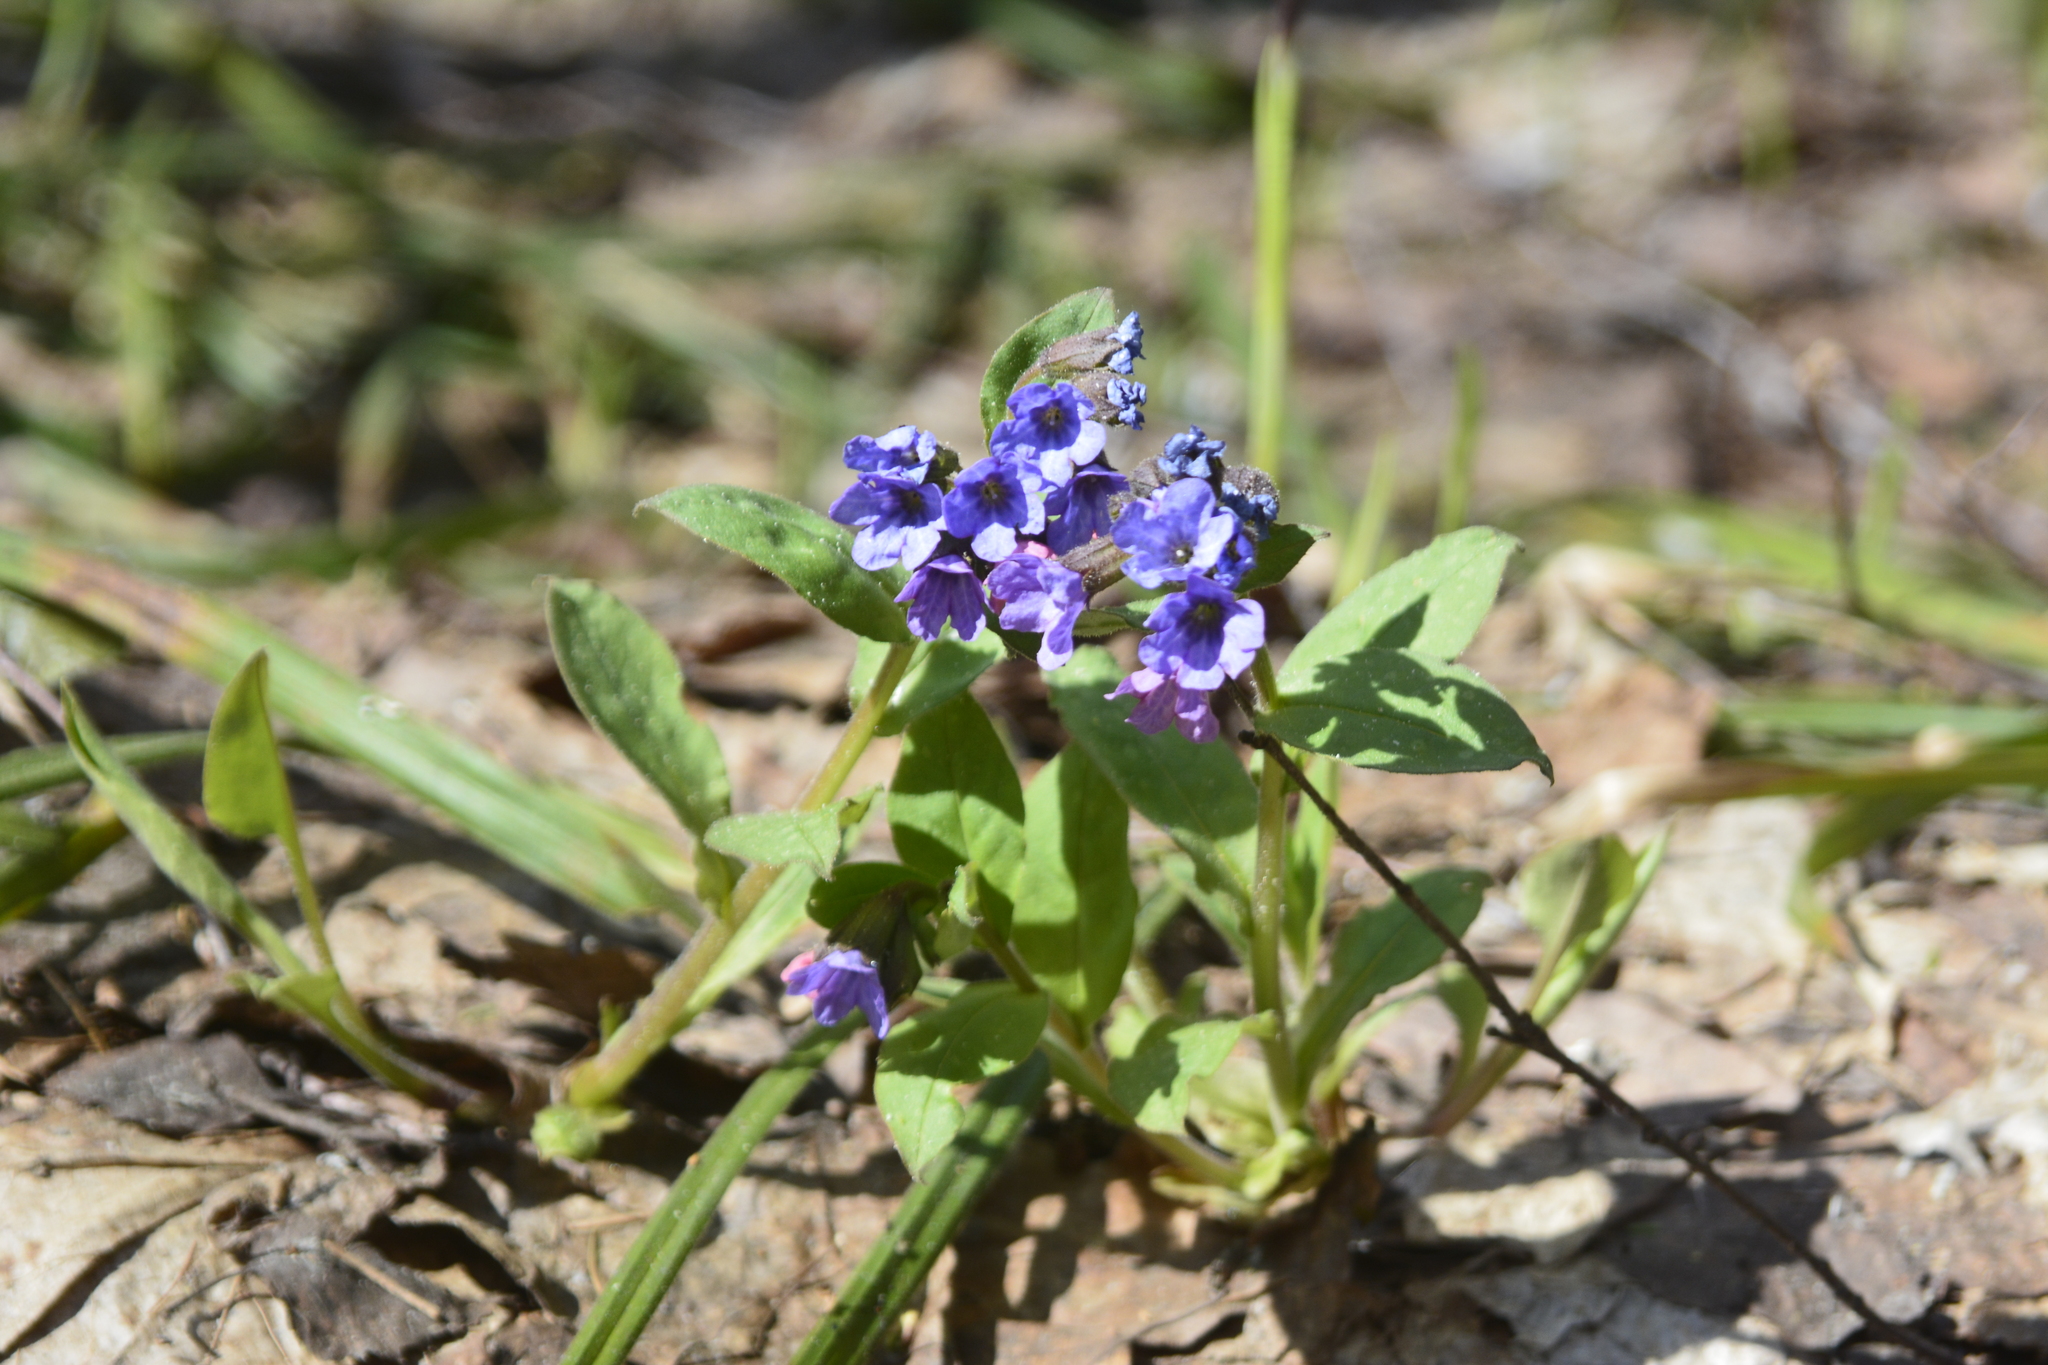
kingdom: Plantae
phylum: Tracheophyta
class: Magnoliopsida
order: Boraginales
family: Boraginaceae
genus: Pulmonaria
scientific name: Pulmonaria obscura
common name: Suffolk lungwort
